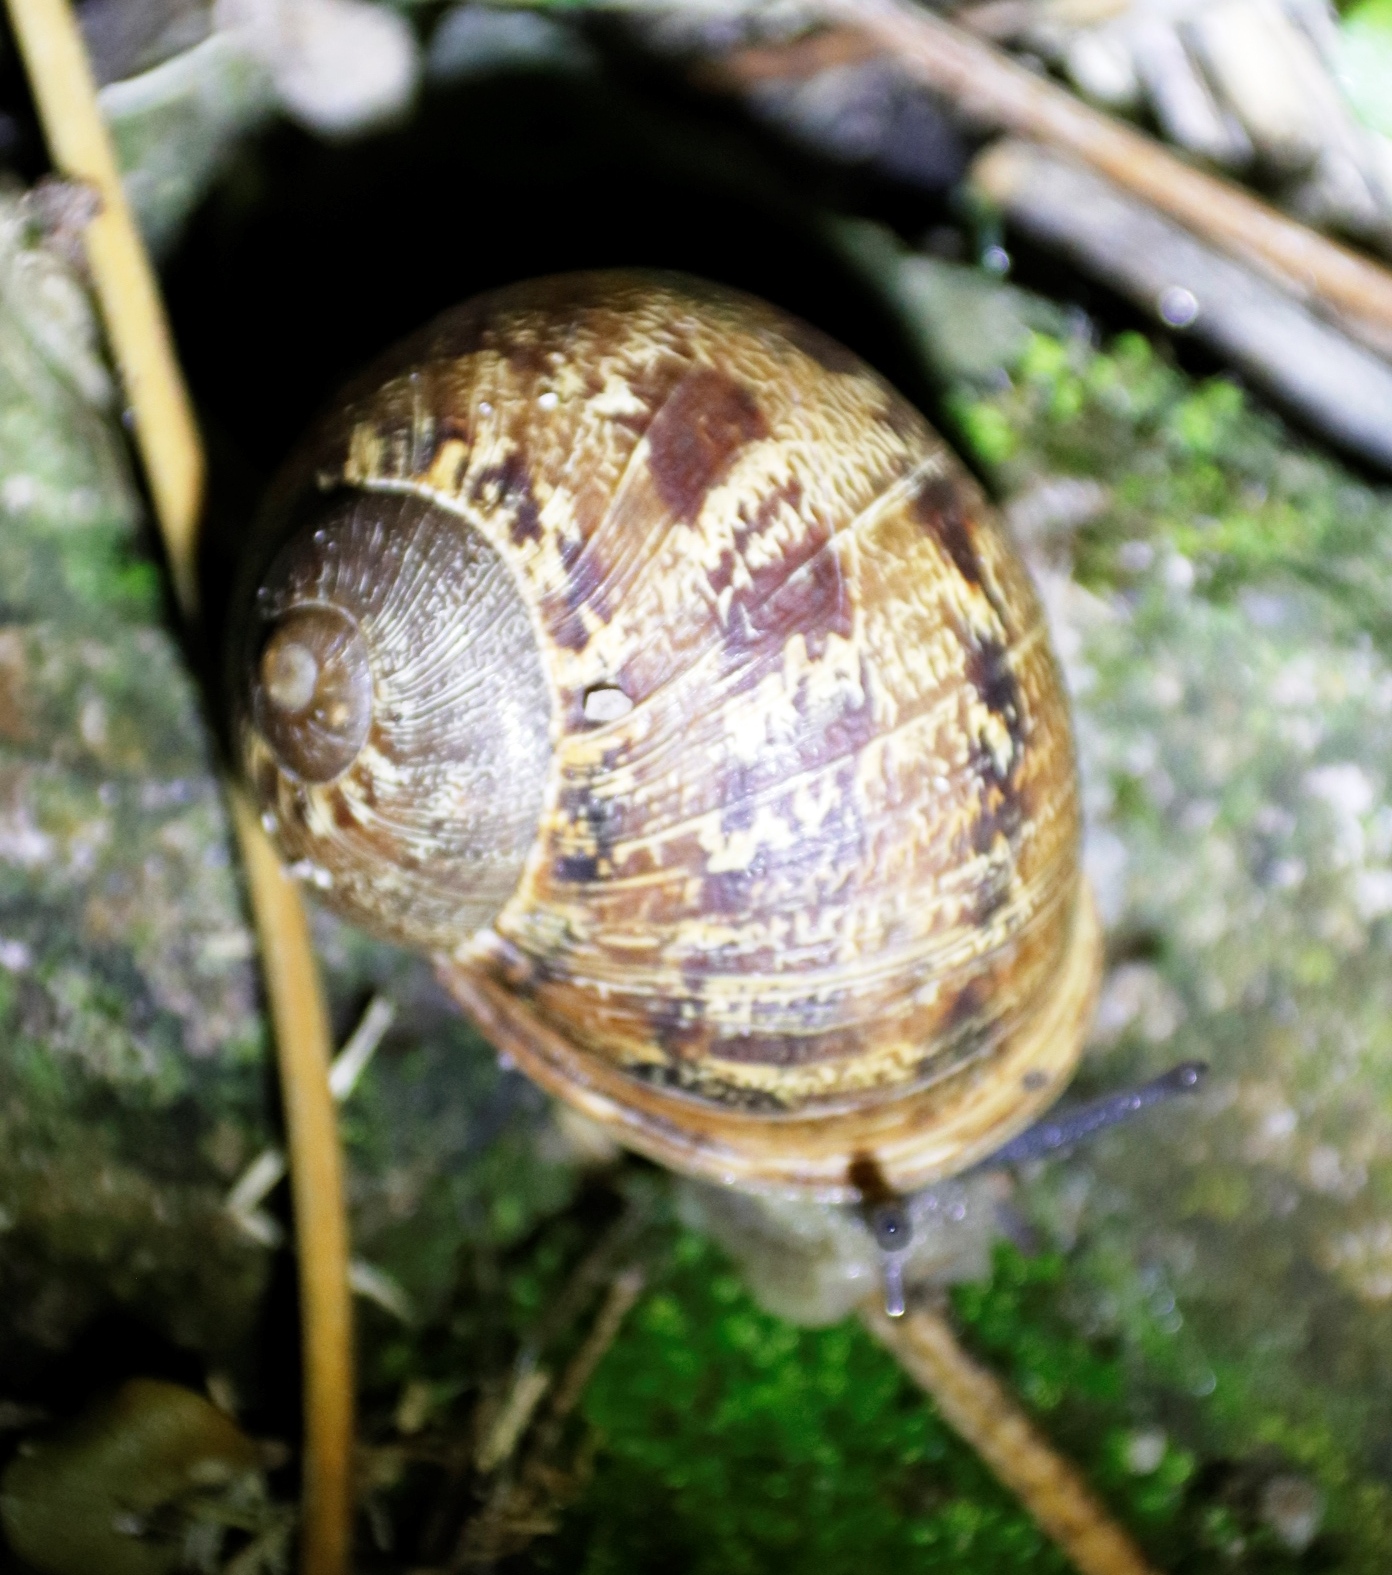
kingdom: Animalia
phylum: Mollusca
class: Gastropoda
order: Stylommatophora
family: Helicidae
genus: Cornu
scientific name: Cornu aspersum
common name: Brown garden snail
